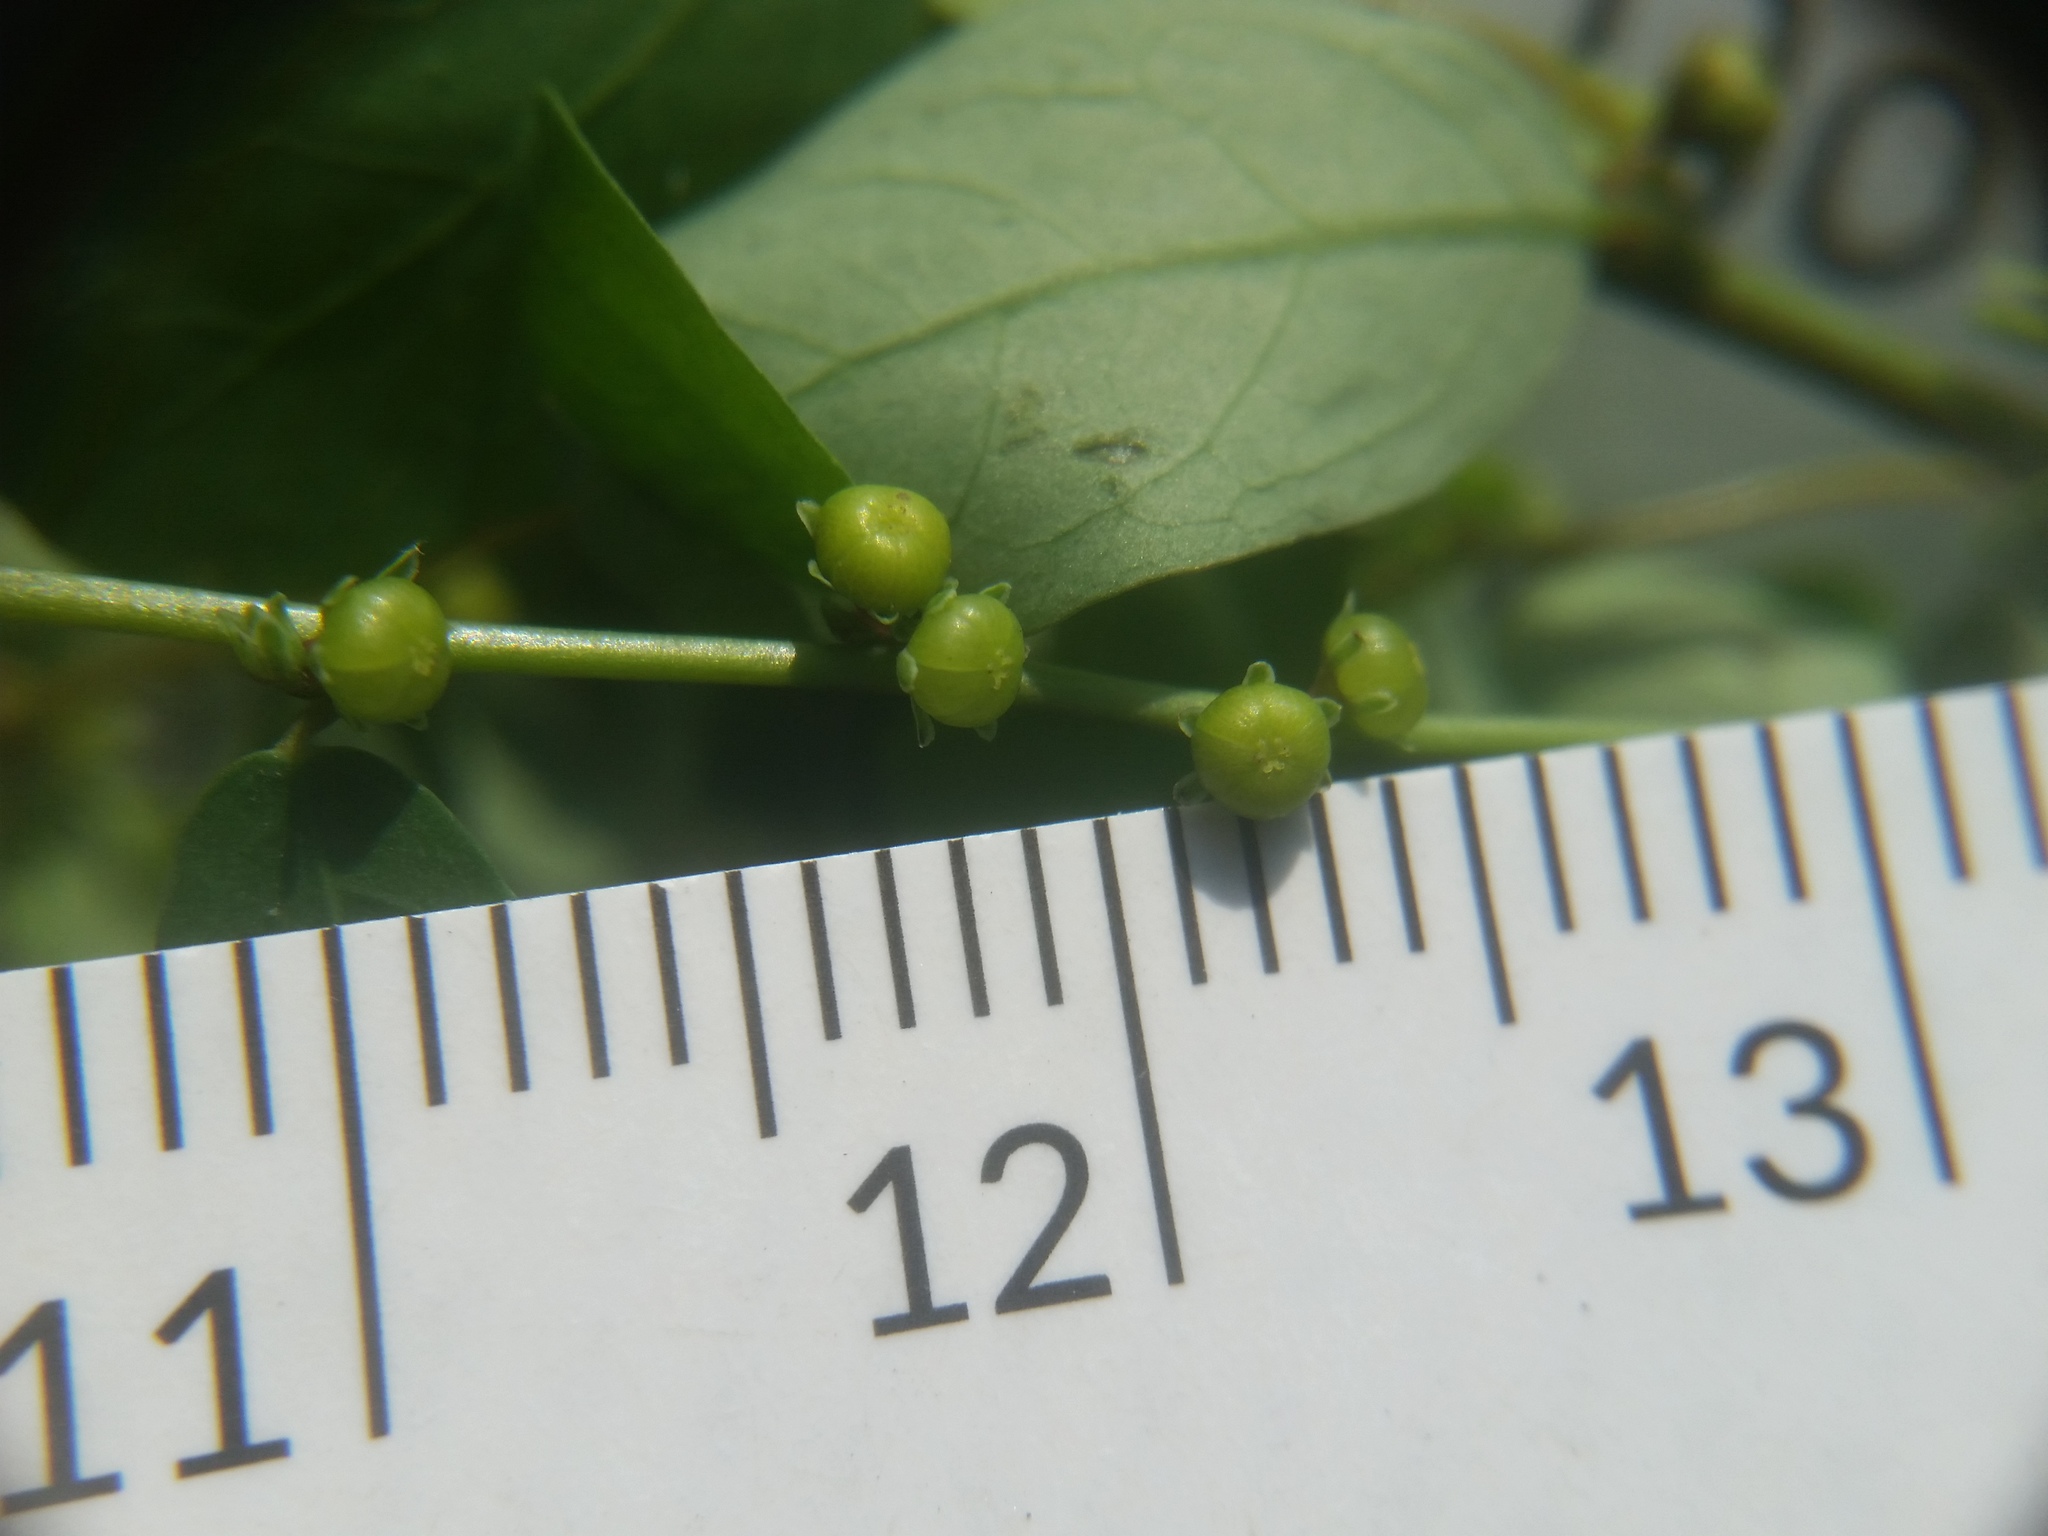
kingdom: Plantae
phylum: Tracheophyta
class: Magnoliopsida
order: Malpighiales
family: Phyllanthaceae
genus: Phyllanthus
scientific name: Phyllanthus caroliniensis
